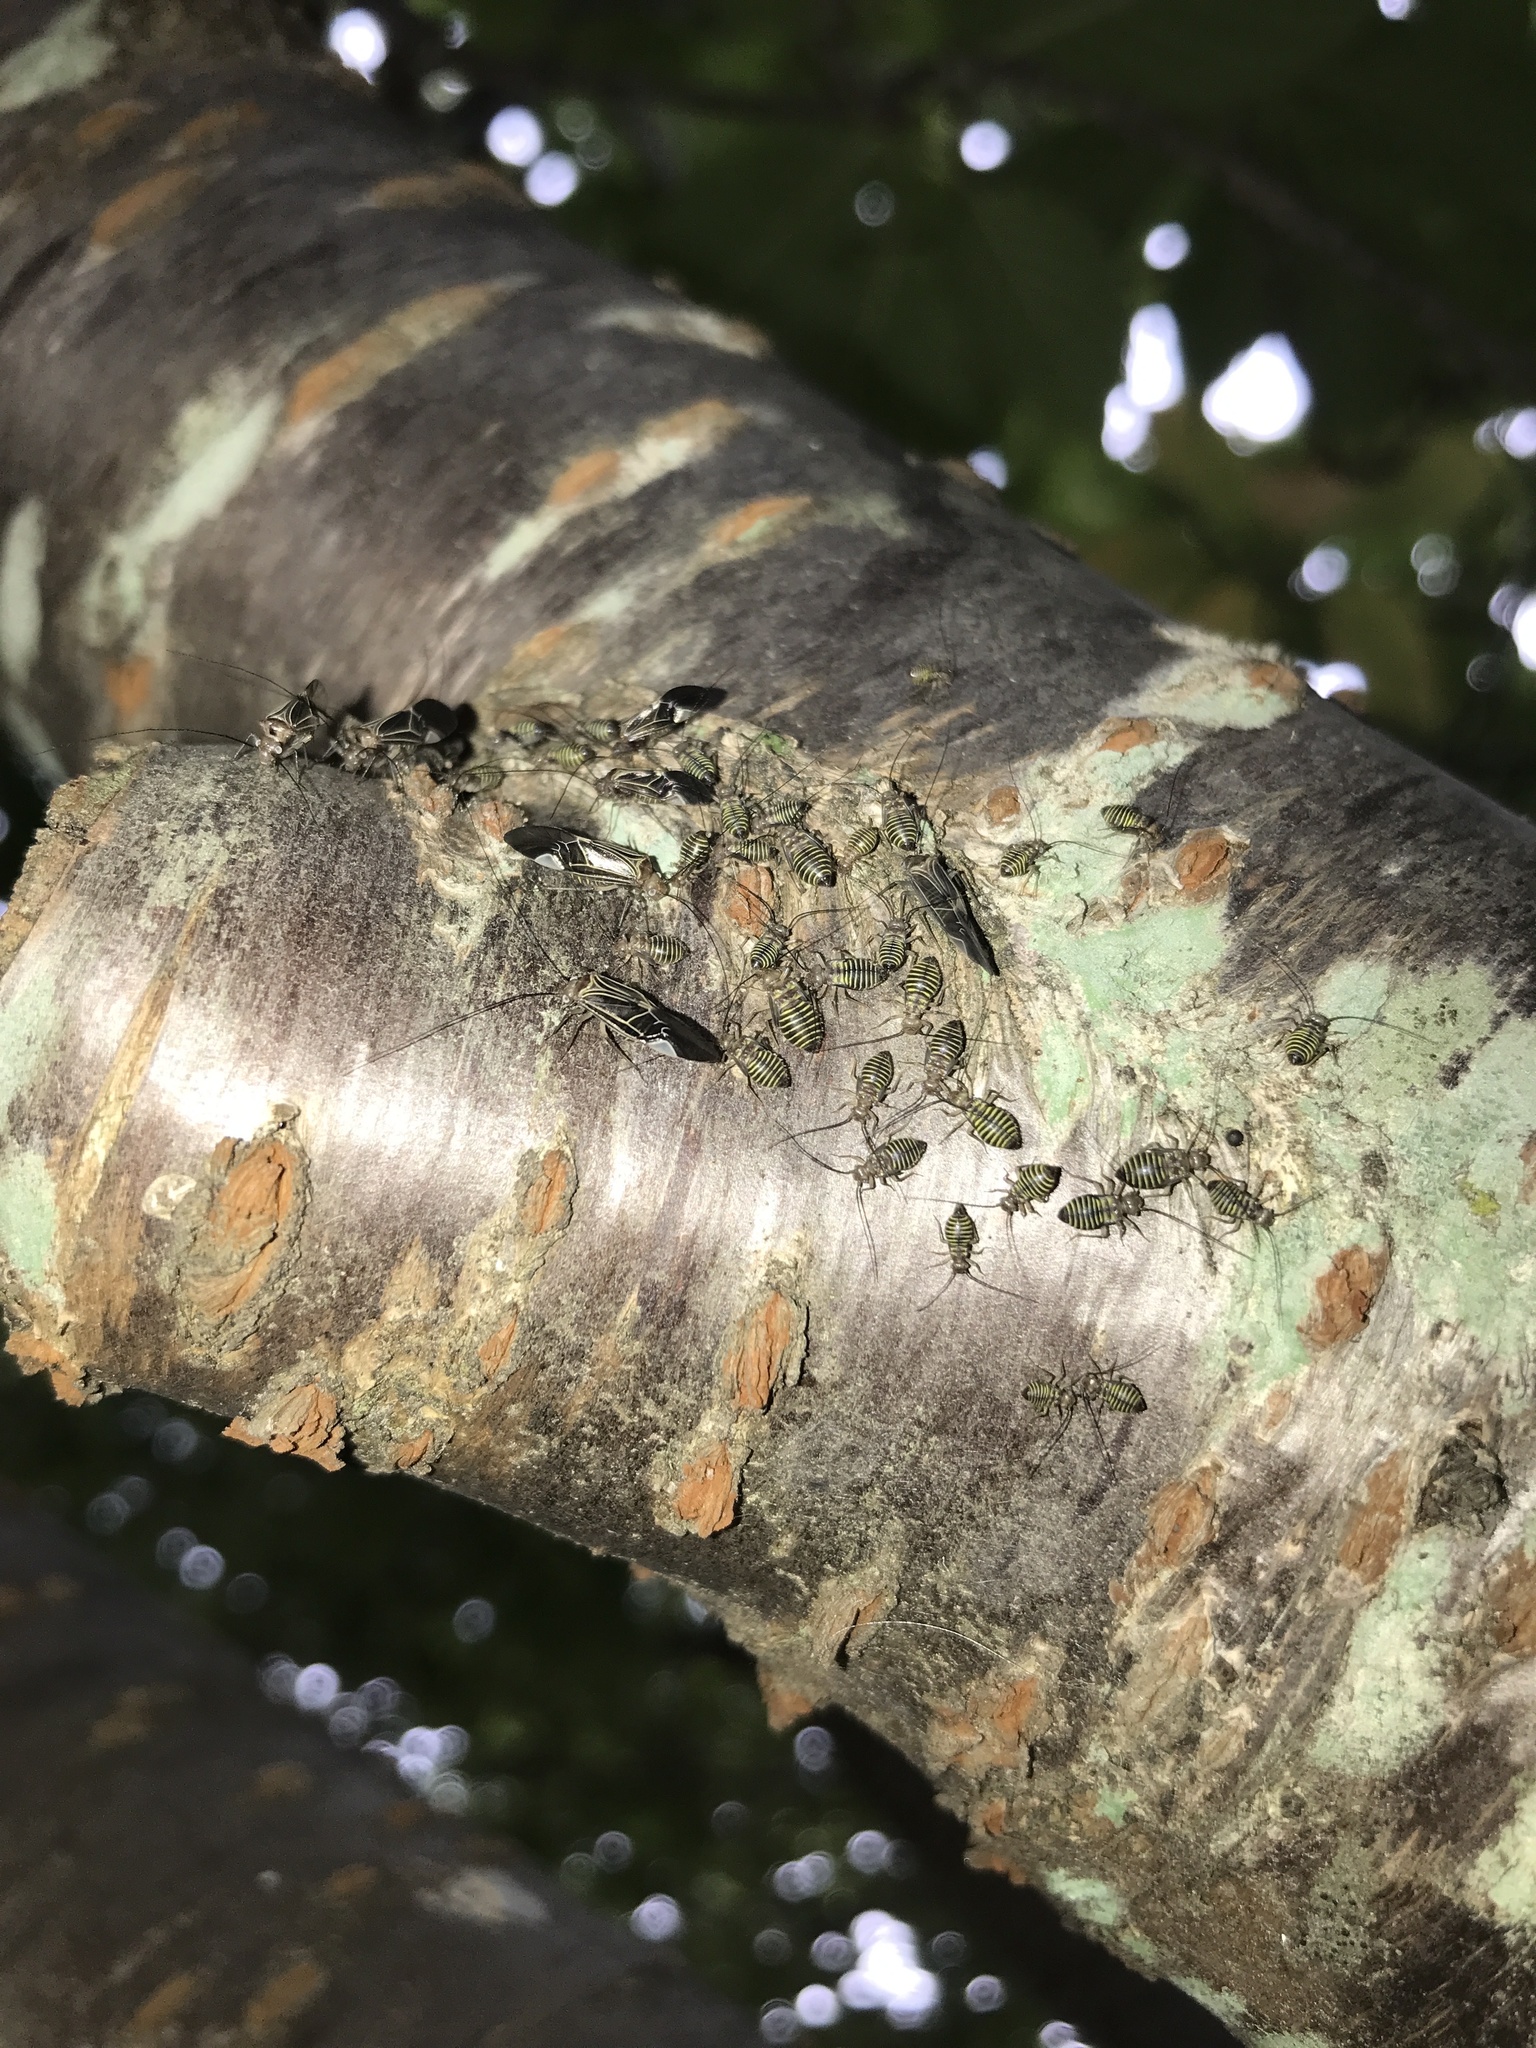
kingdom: Animalia
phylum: Arthropoda
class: Insecta
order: Psocodea
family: Psocidae
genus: Cerastipsocus
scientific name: Cerastipsocus venosus
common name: Tree cattle
